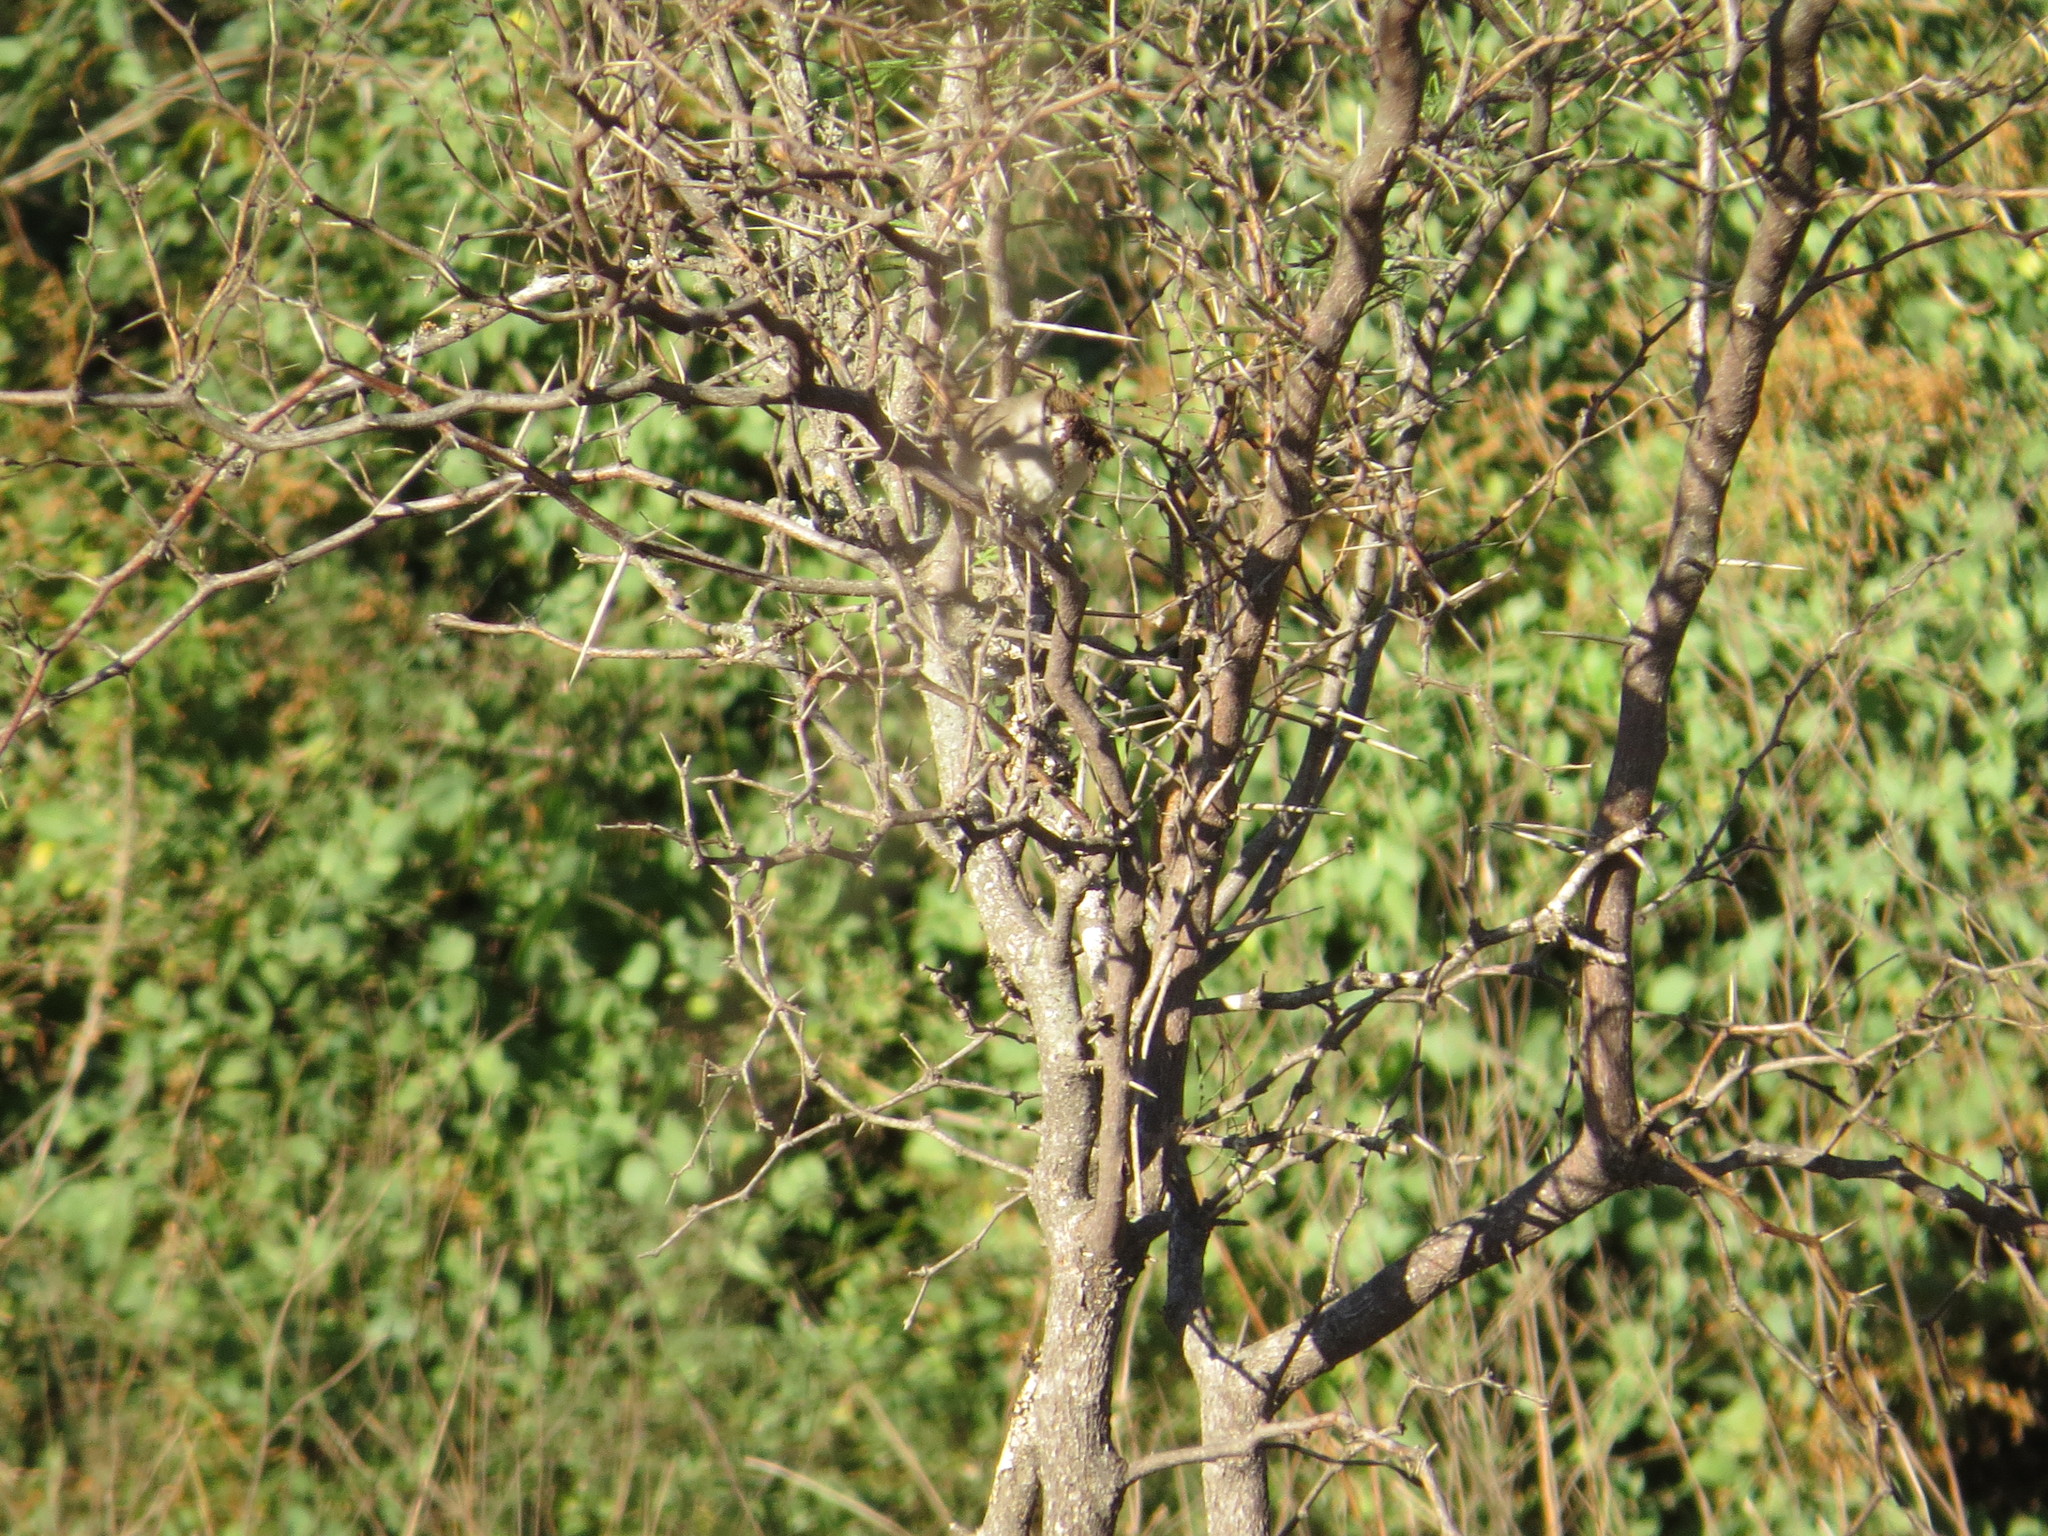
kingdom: Animalia
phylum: Chordata
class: Aves
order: Passeriformes
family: Furnariidae
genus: Phacellodomus
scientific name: Phacellodomus sibilatrix
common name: Little thornbird
